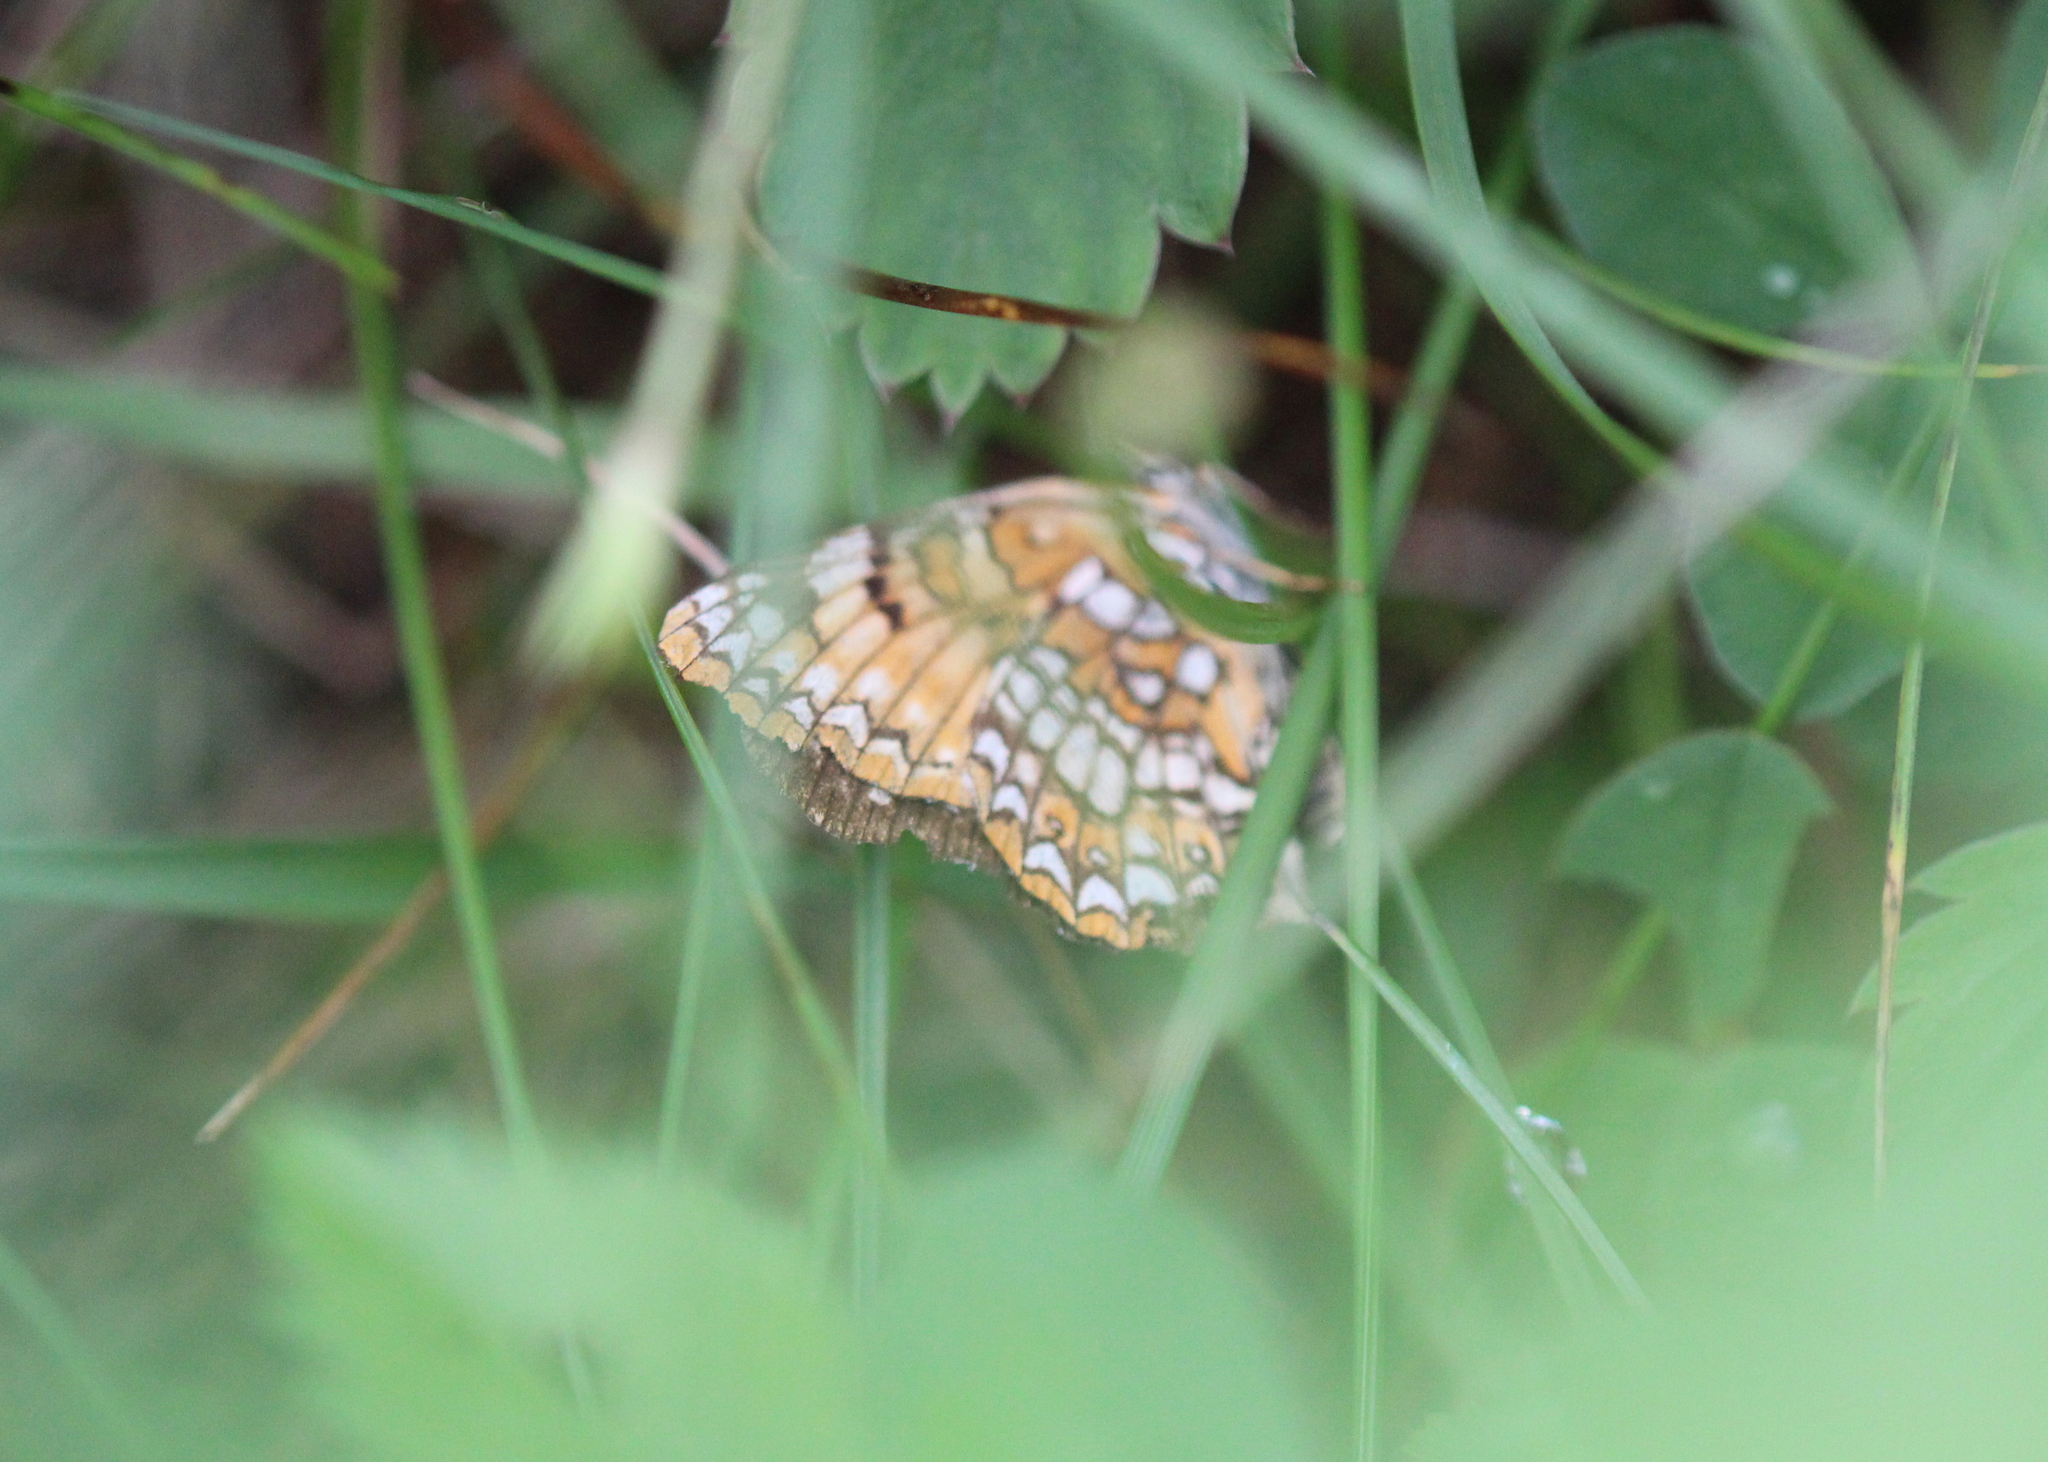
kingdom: Animalia
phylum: Arthropoda
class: Insecta
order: Lepidoptera
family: Nymphalidae
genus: Chlosyne
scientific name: Chlosyne harrisii
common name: Harris's checkerspot
